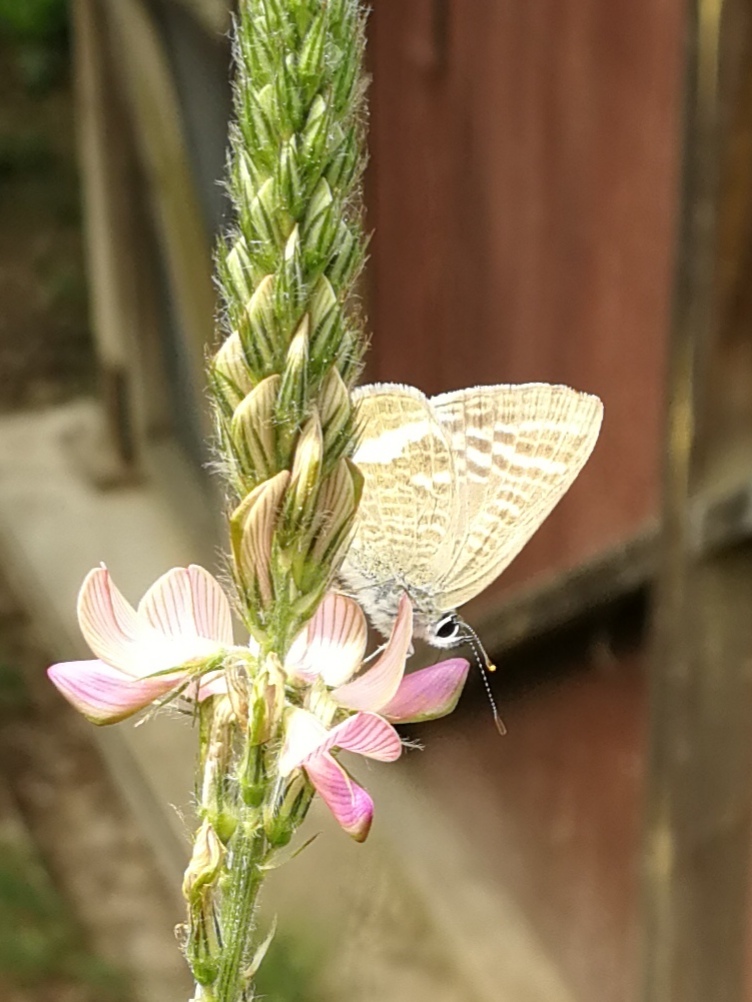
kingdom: Animalia
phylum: Arthropoda
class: Insecta
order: Lepidoptera
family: Lycaenidae
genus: Lampides
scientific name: Lampides boeticus
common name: Long-tailed blue
